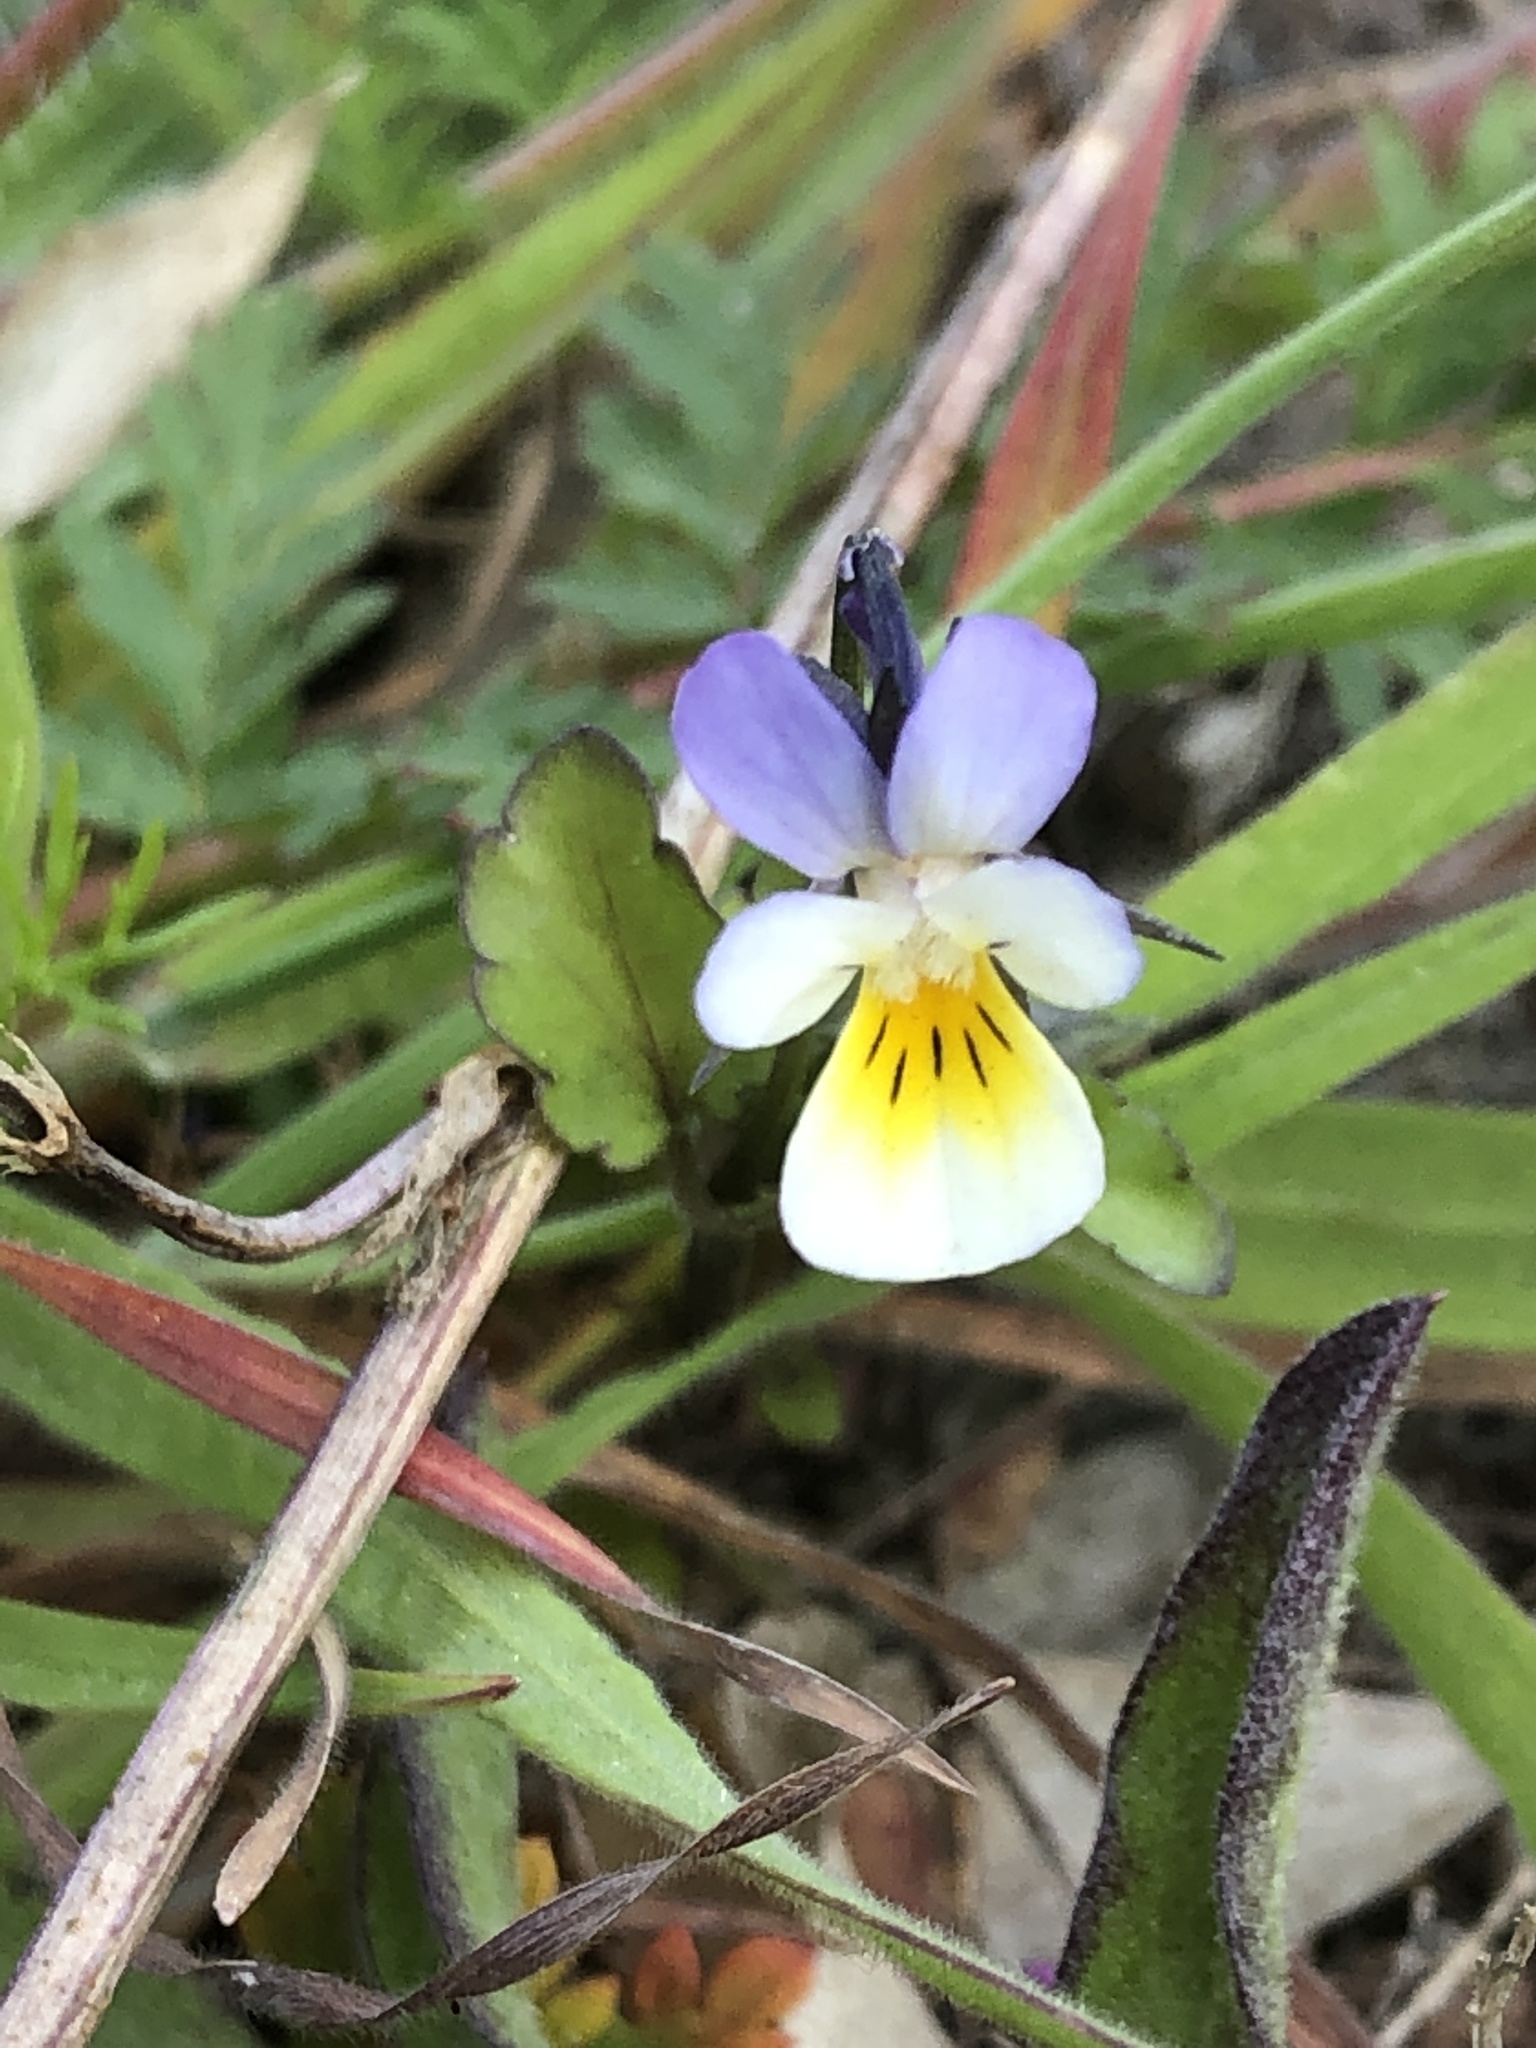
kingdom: Plantae
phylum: Tracheophyta
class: Magnoliopsida
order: Malpighiales
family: Violaceae
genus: Viola
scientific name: Viola arvensis
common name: Field pansy
